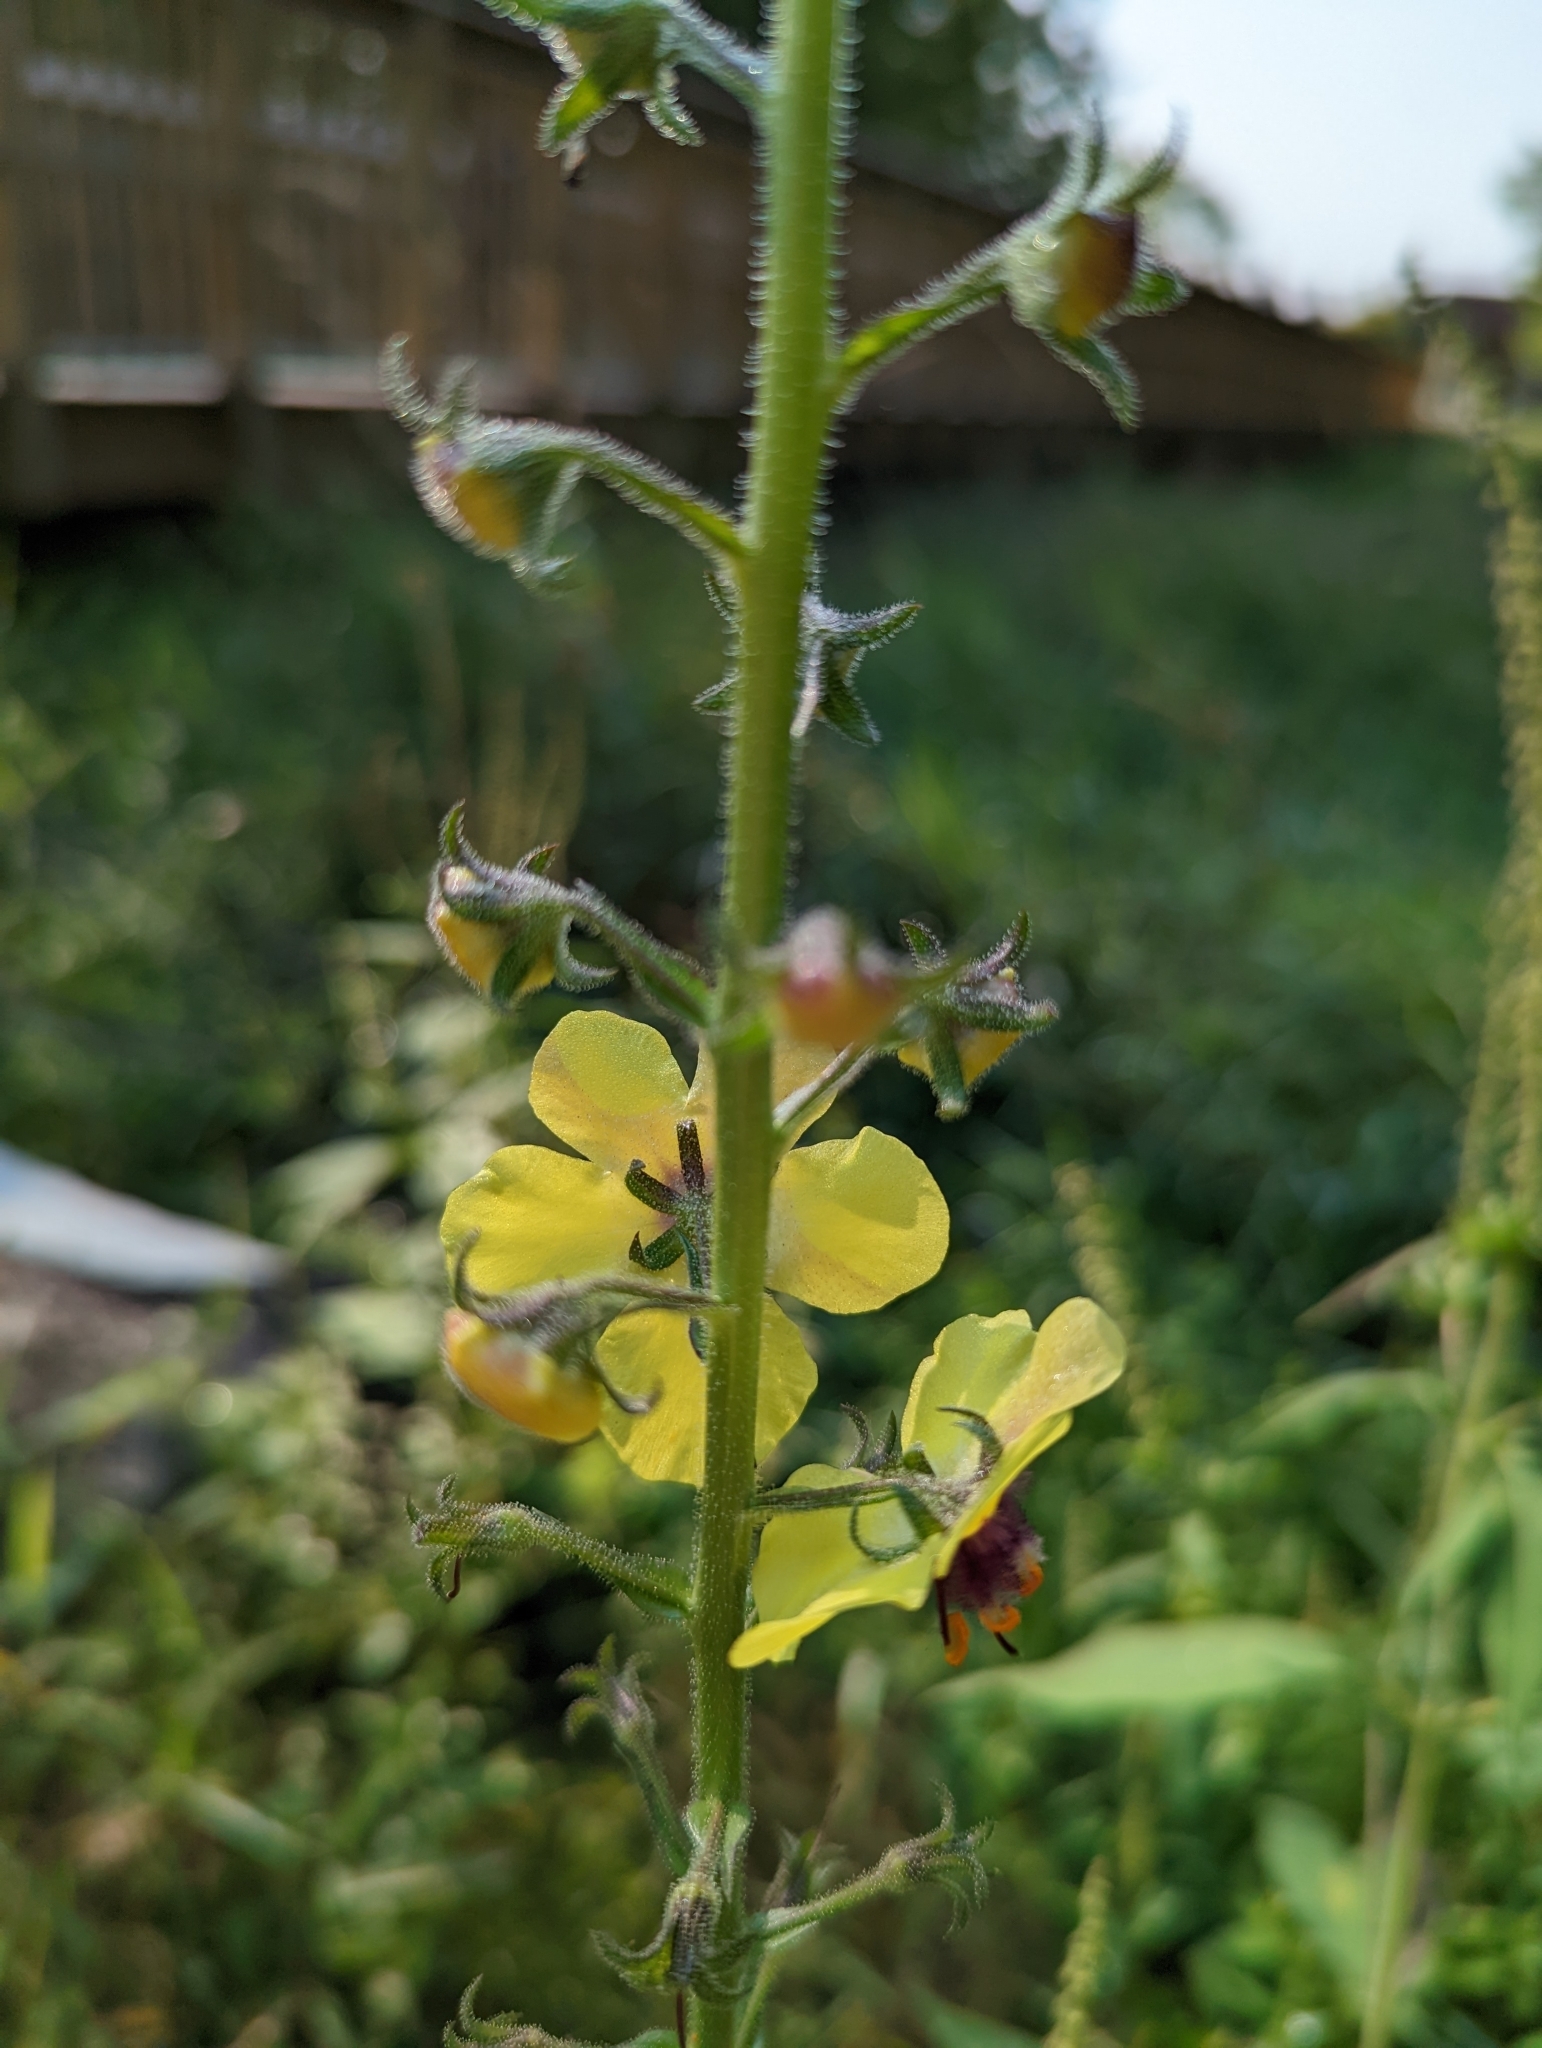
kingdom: Plantae
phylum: Tracheophyta
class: Magnoliopsida
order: Lamiales
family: Scrophulariaceae
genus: Verbascum
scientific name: Verbascum blattaria
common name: Moth mullein
